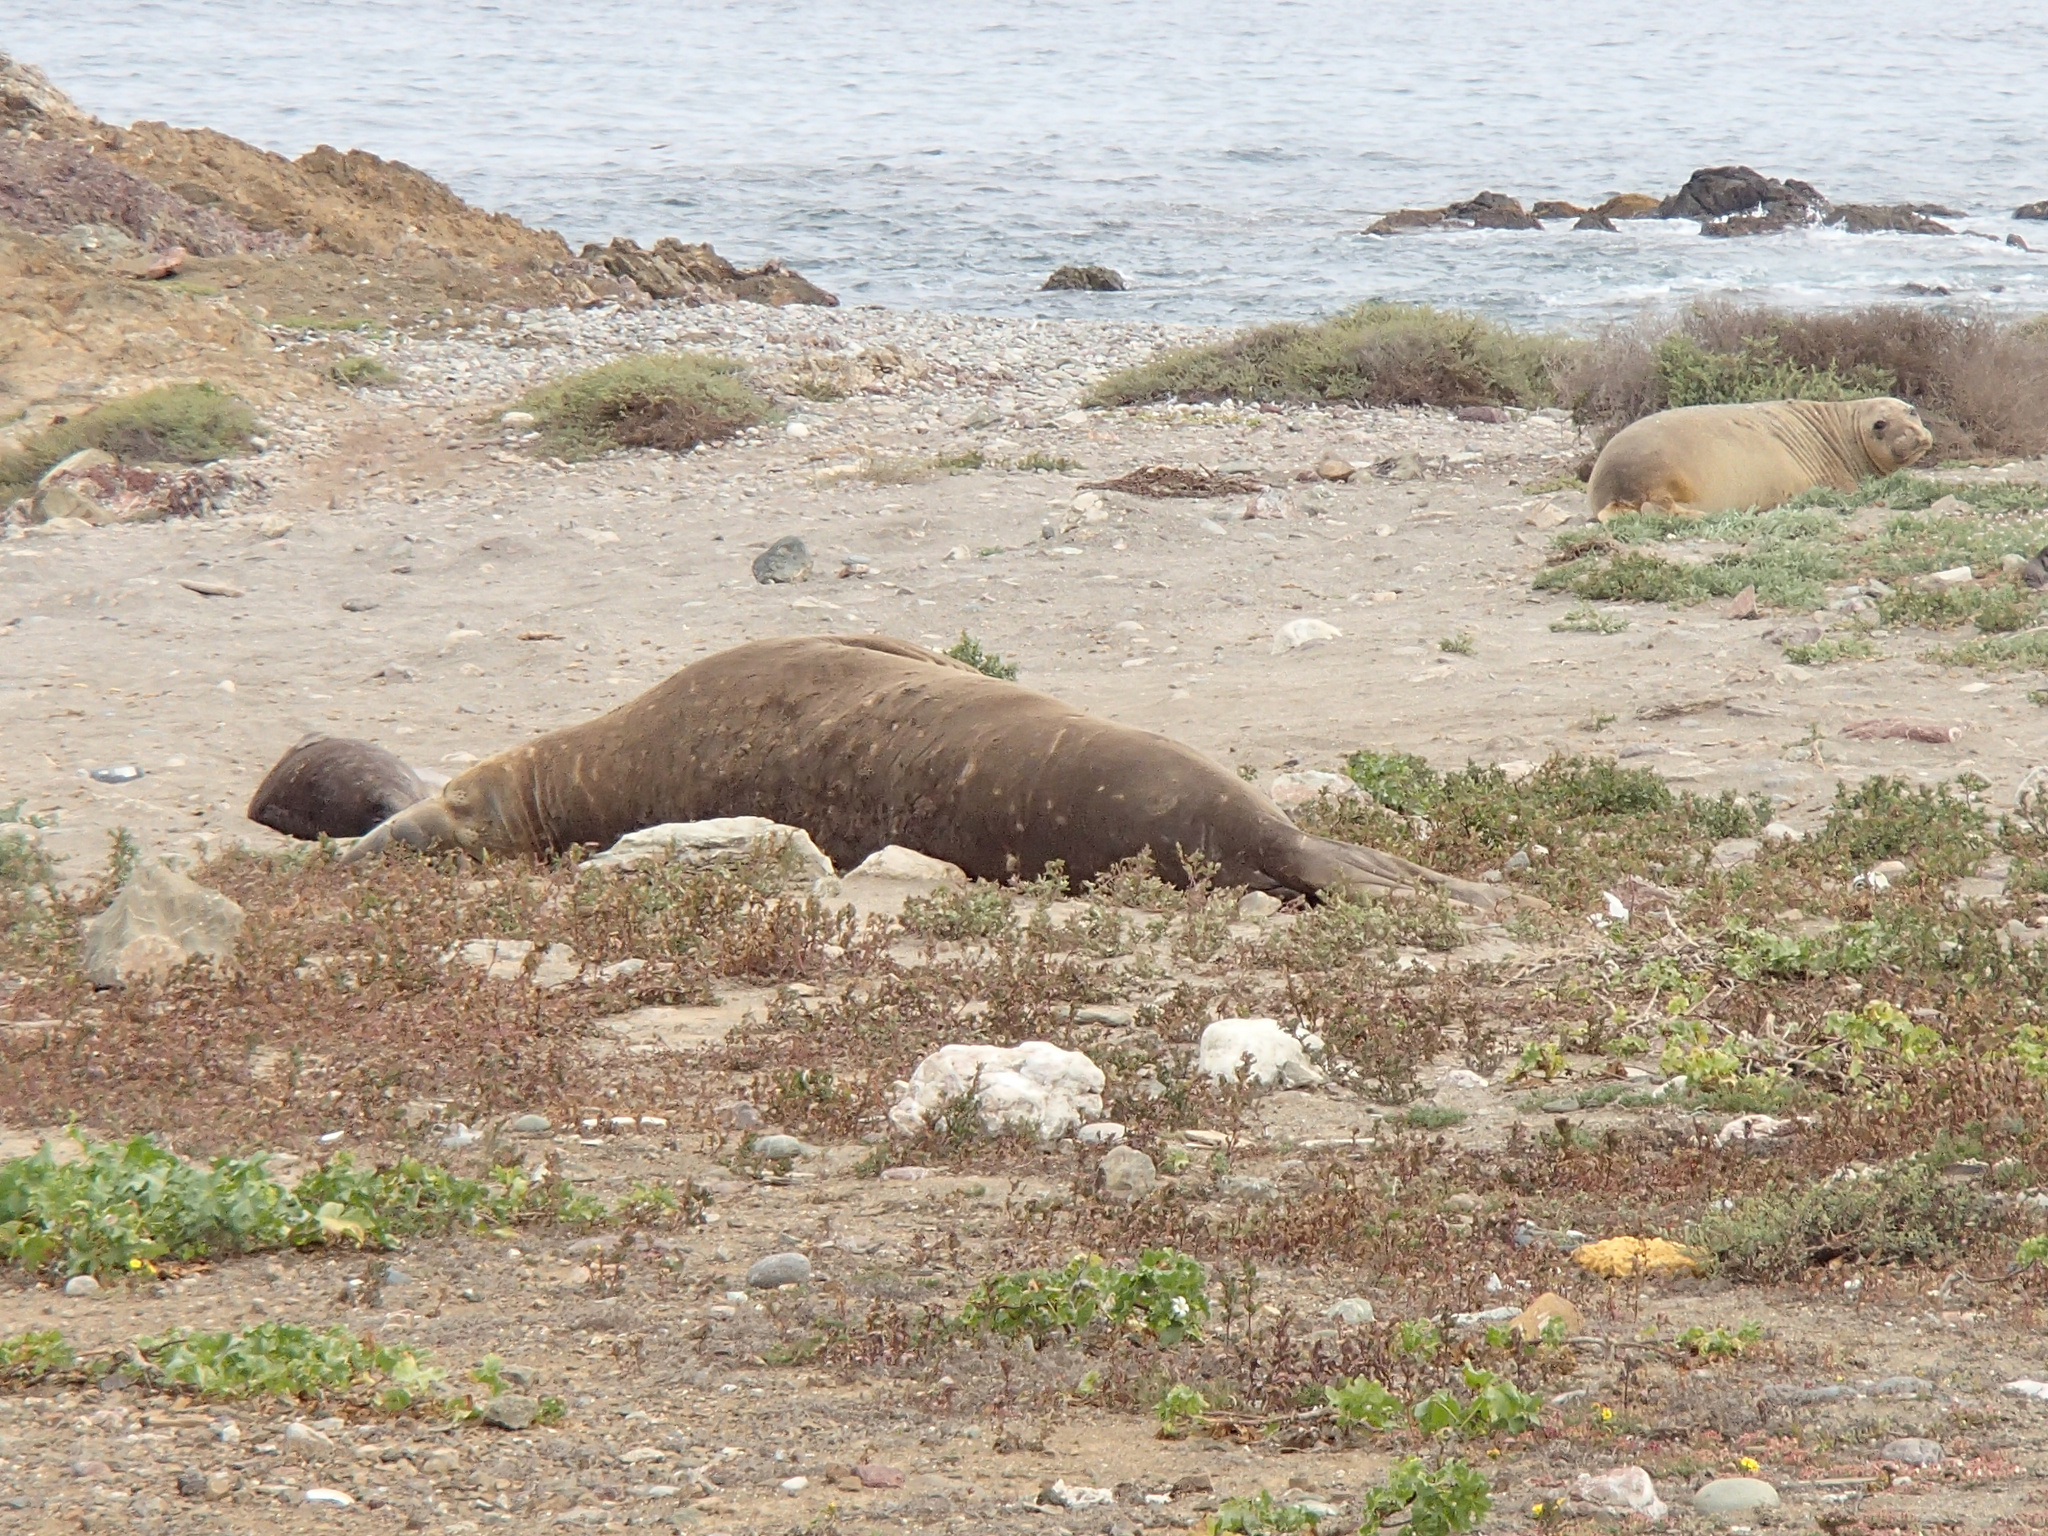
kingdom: Animalia
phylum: Chordata
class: Mammalia
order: Carnivora
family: Phocidae
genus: Mirounga
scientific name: Mirounga angustirostris
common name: Northern elephant seal
